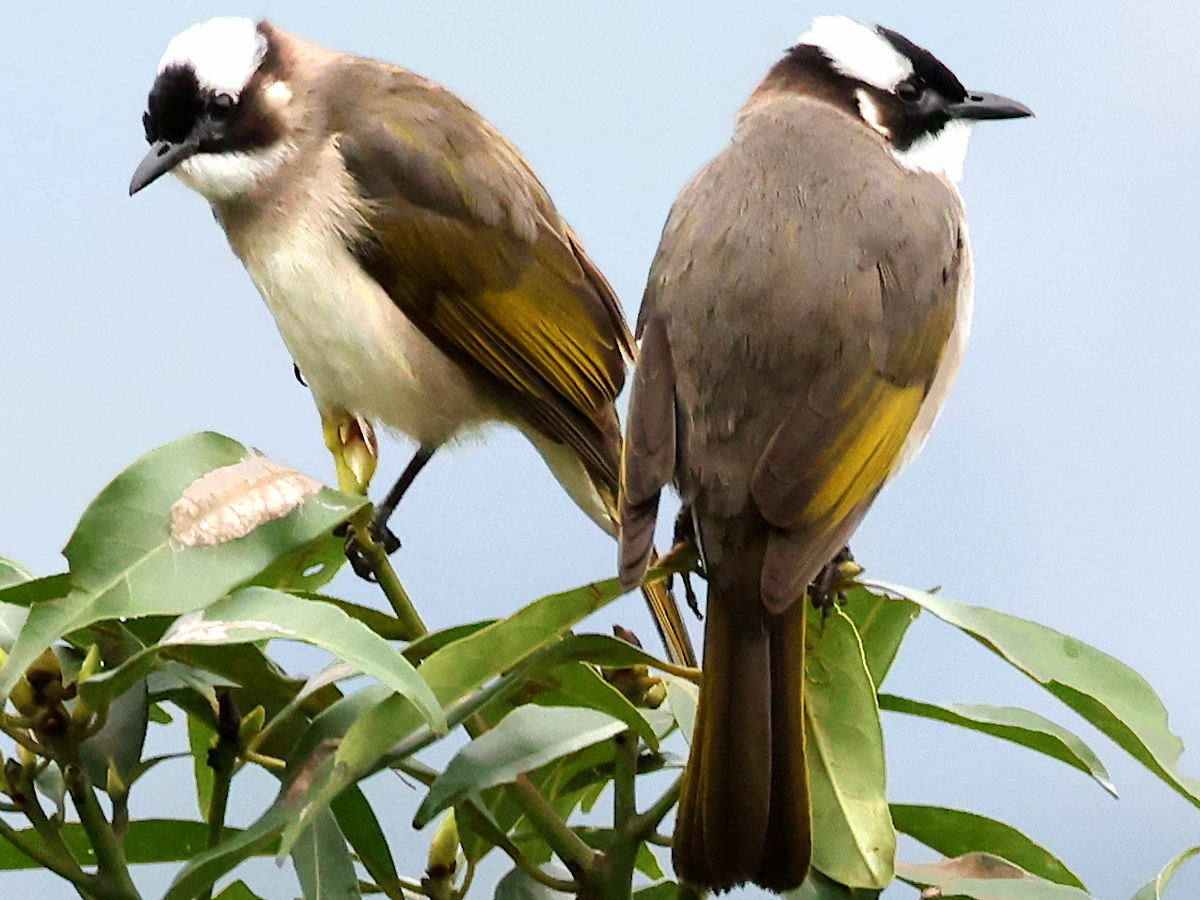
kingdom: Animalia
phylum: Chordata
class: Aves
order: Passeriformes
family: Pycnonotidae
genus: Pycnonotus
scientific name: Pycnonotus sinensis
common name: Light-vented bulbul
